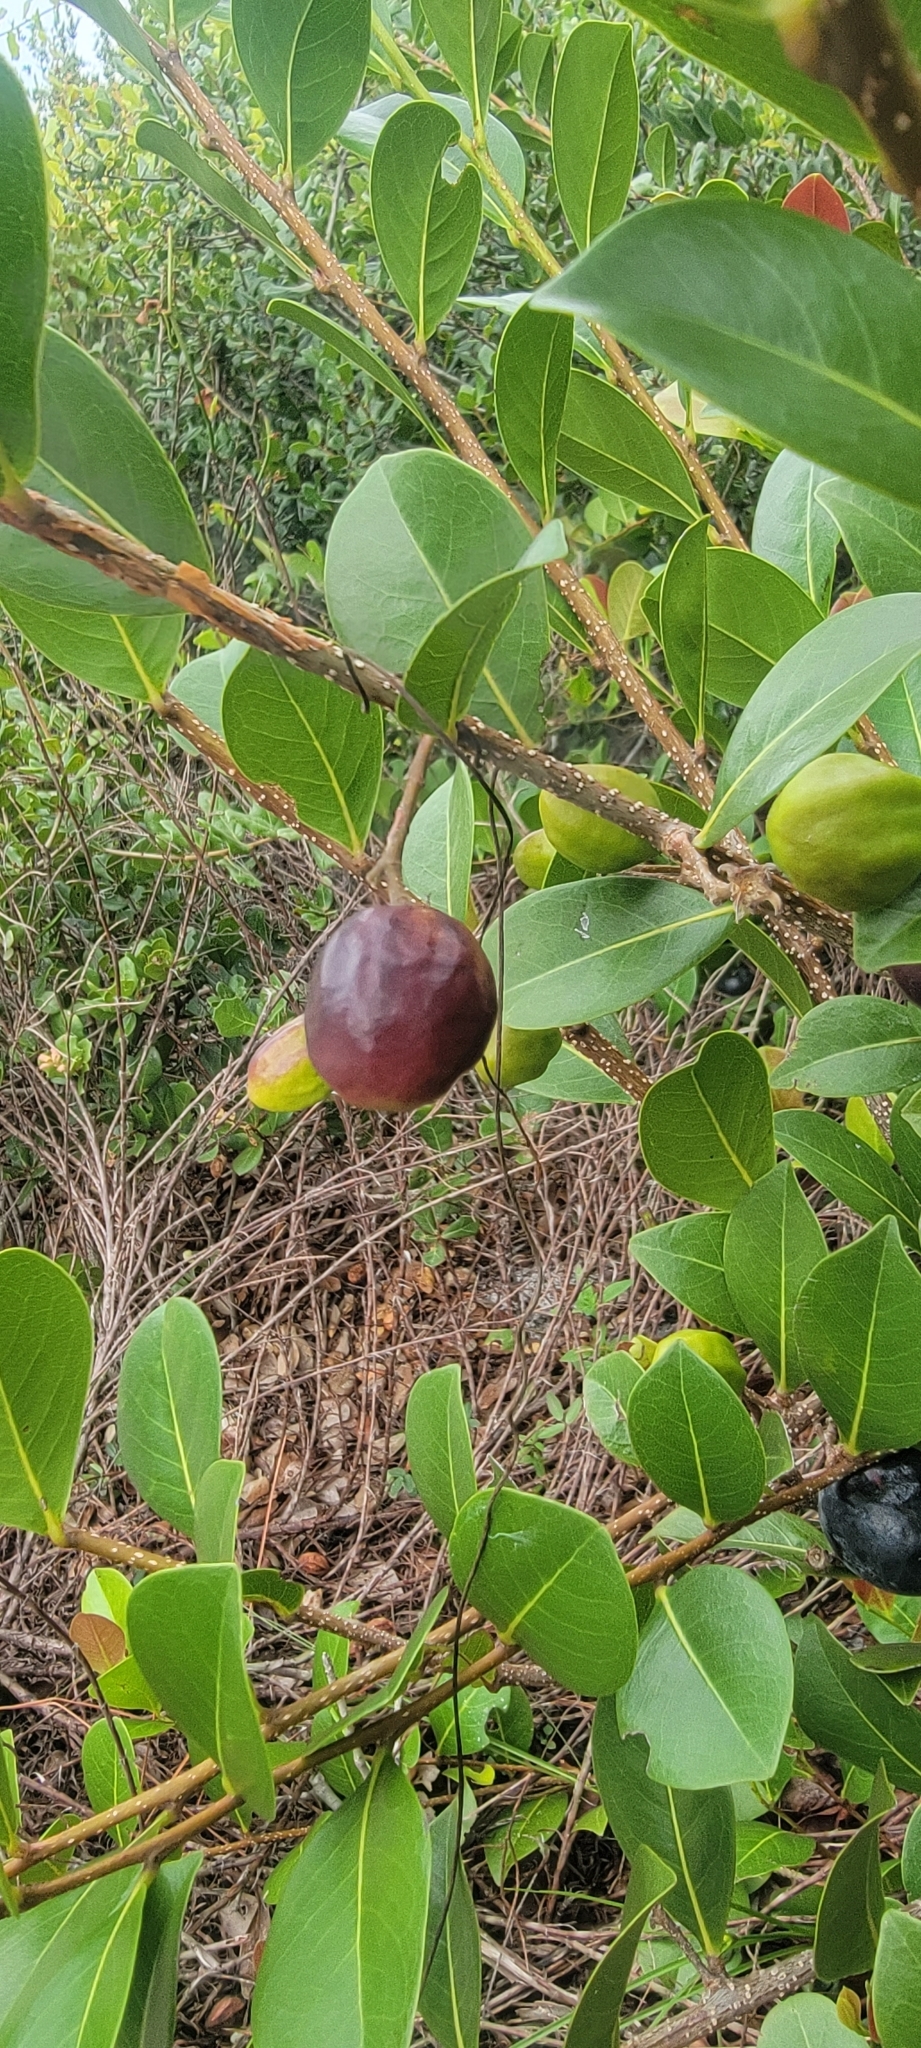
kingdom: Plantae
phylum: Tracheophyta
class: Magnoliopsida
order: Malpighiales
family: Chrysobalanaceae
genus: Chrysobalanus
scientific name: Chrysobalanus icaco
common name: Coco plum
